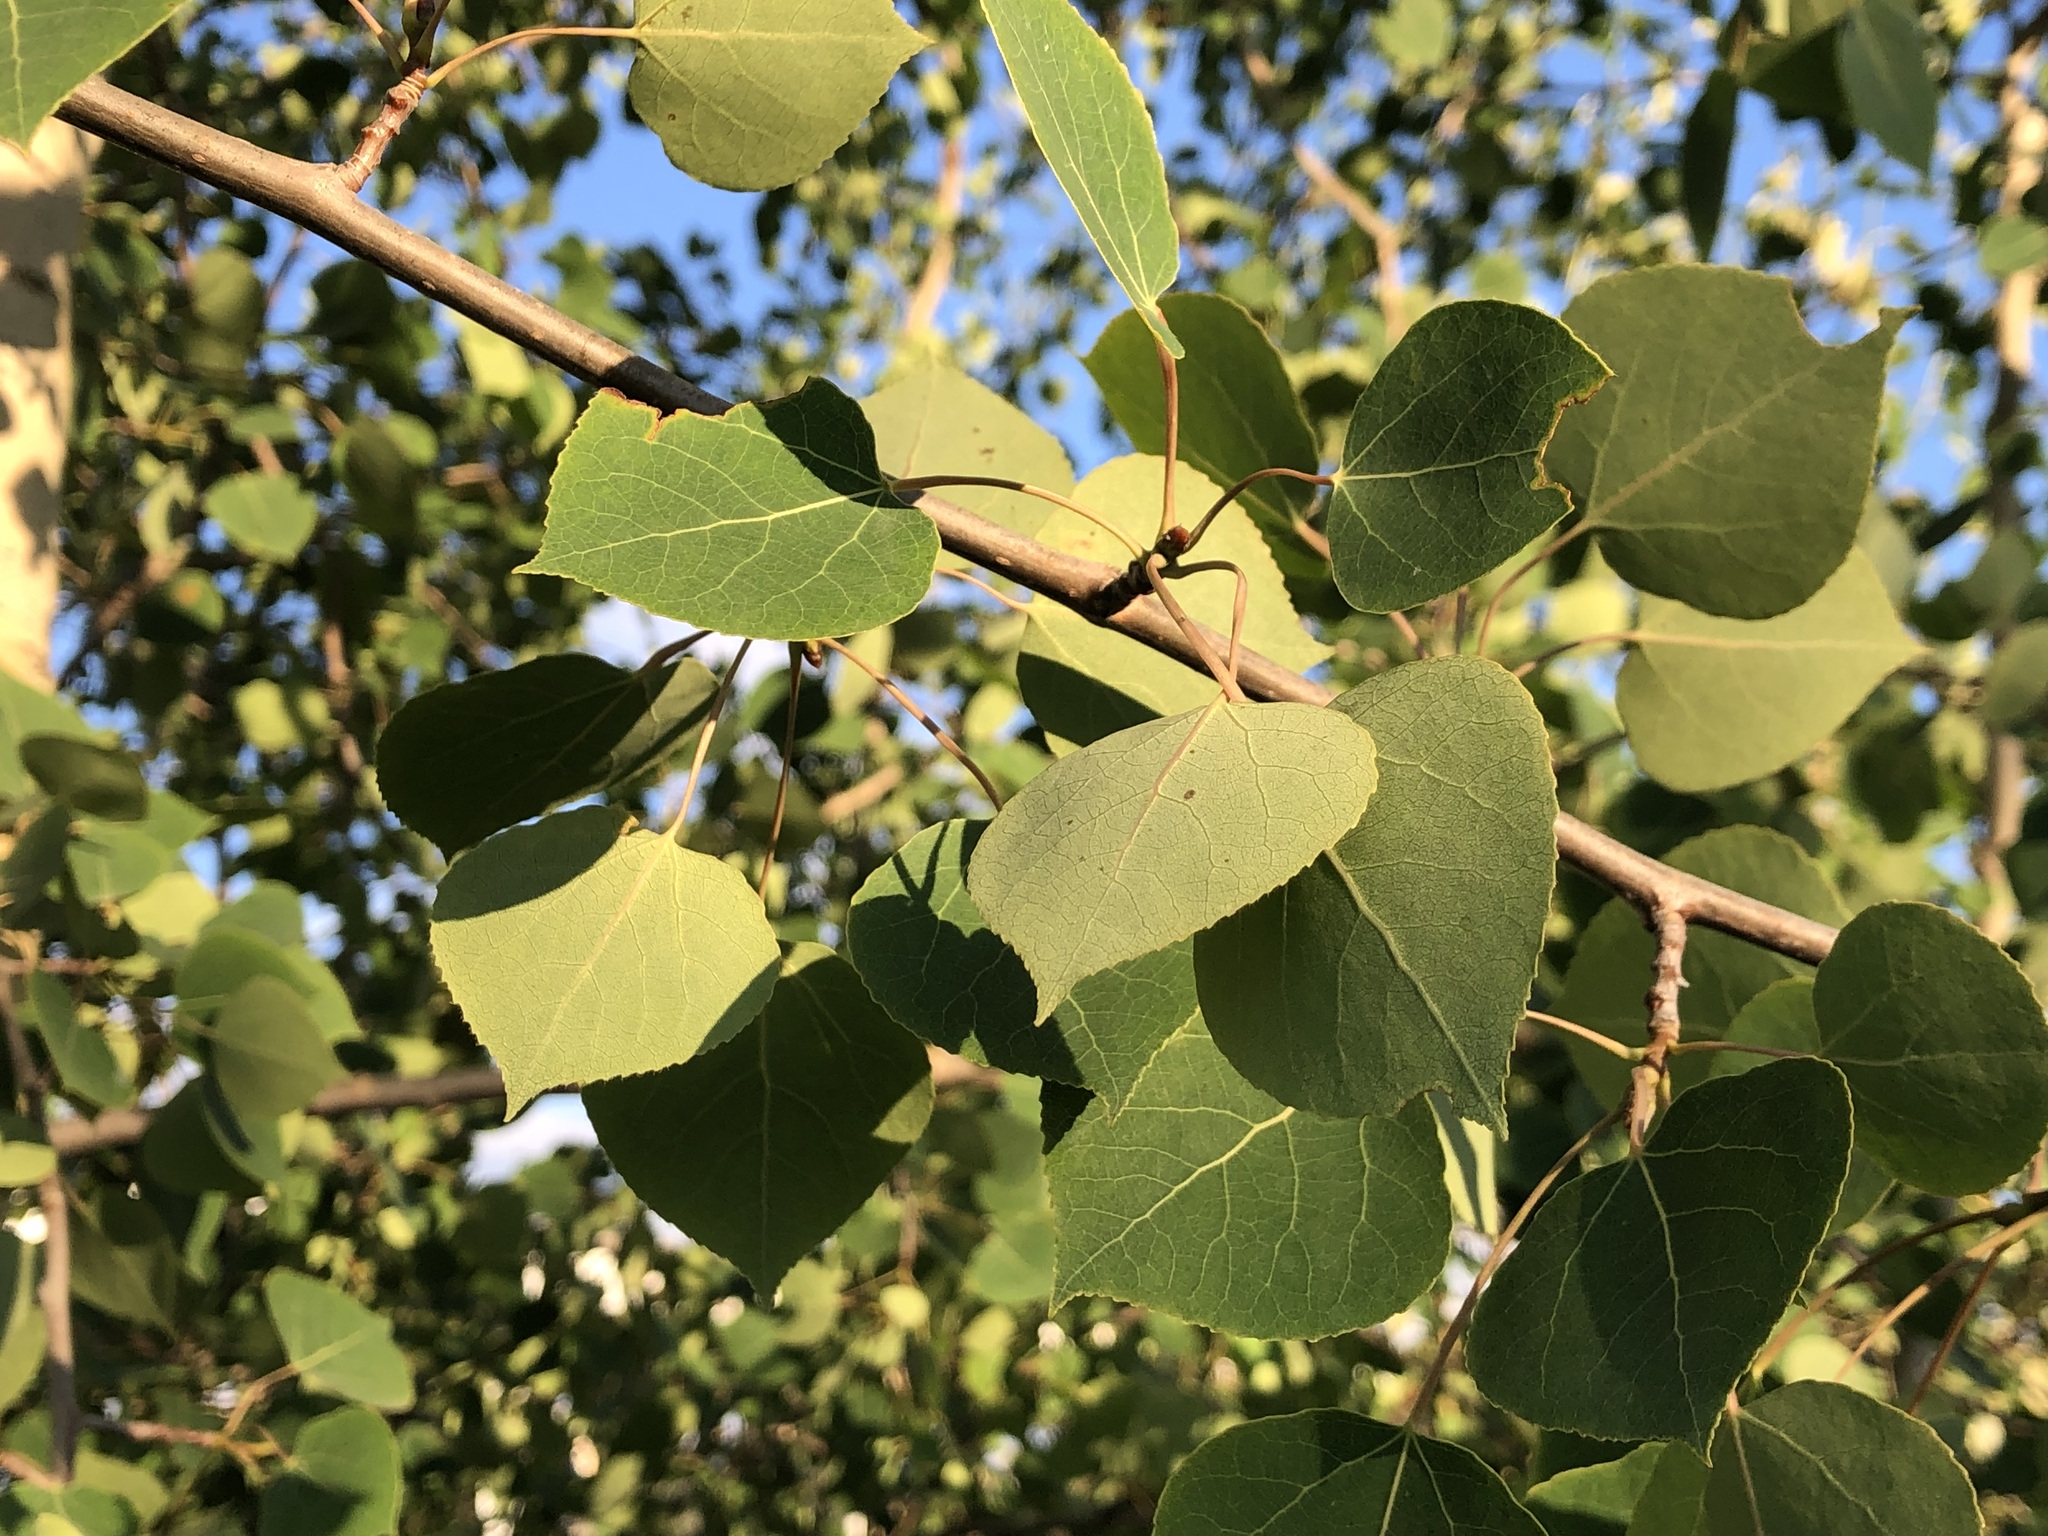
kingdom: Plantae
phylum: Tracheophyta
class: Magnoliopsida
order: Malpighiales
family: Salicaceae
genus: Populus
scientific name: Populus tremuloides
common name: Quaking aspen
